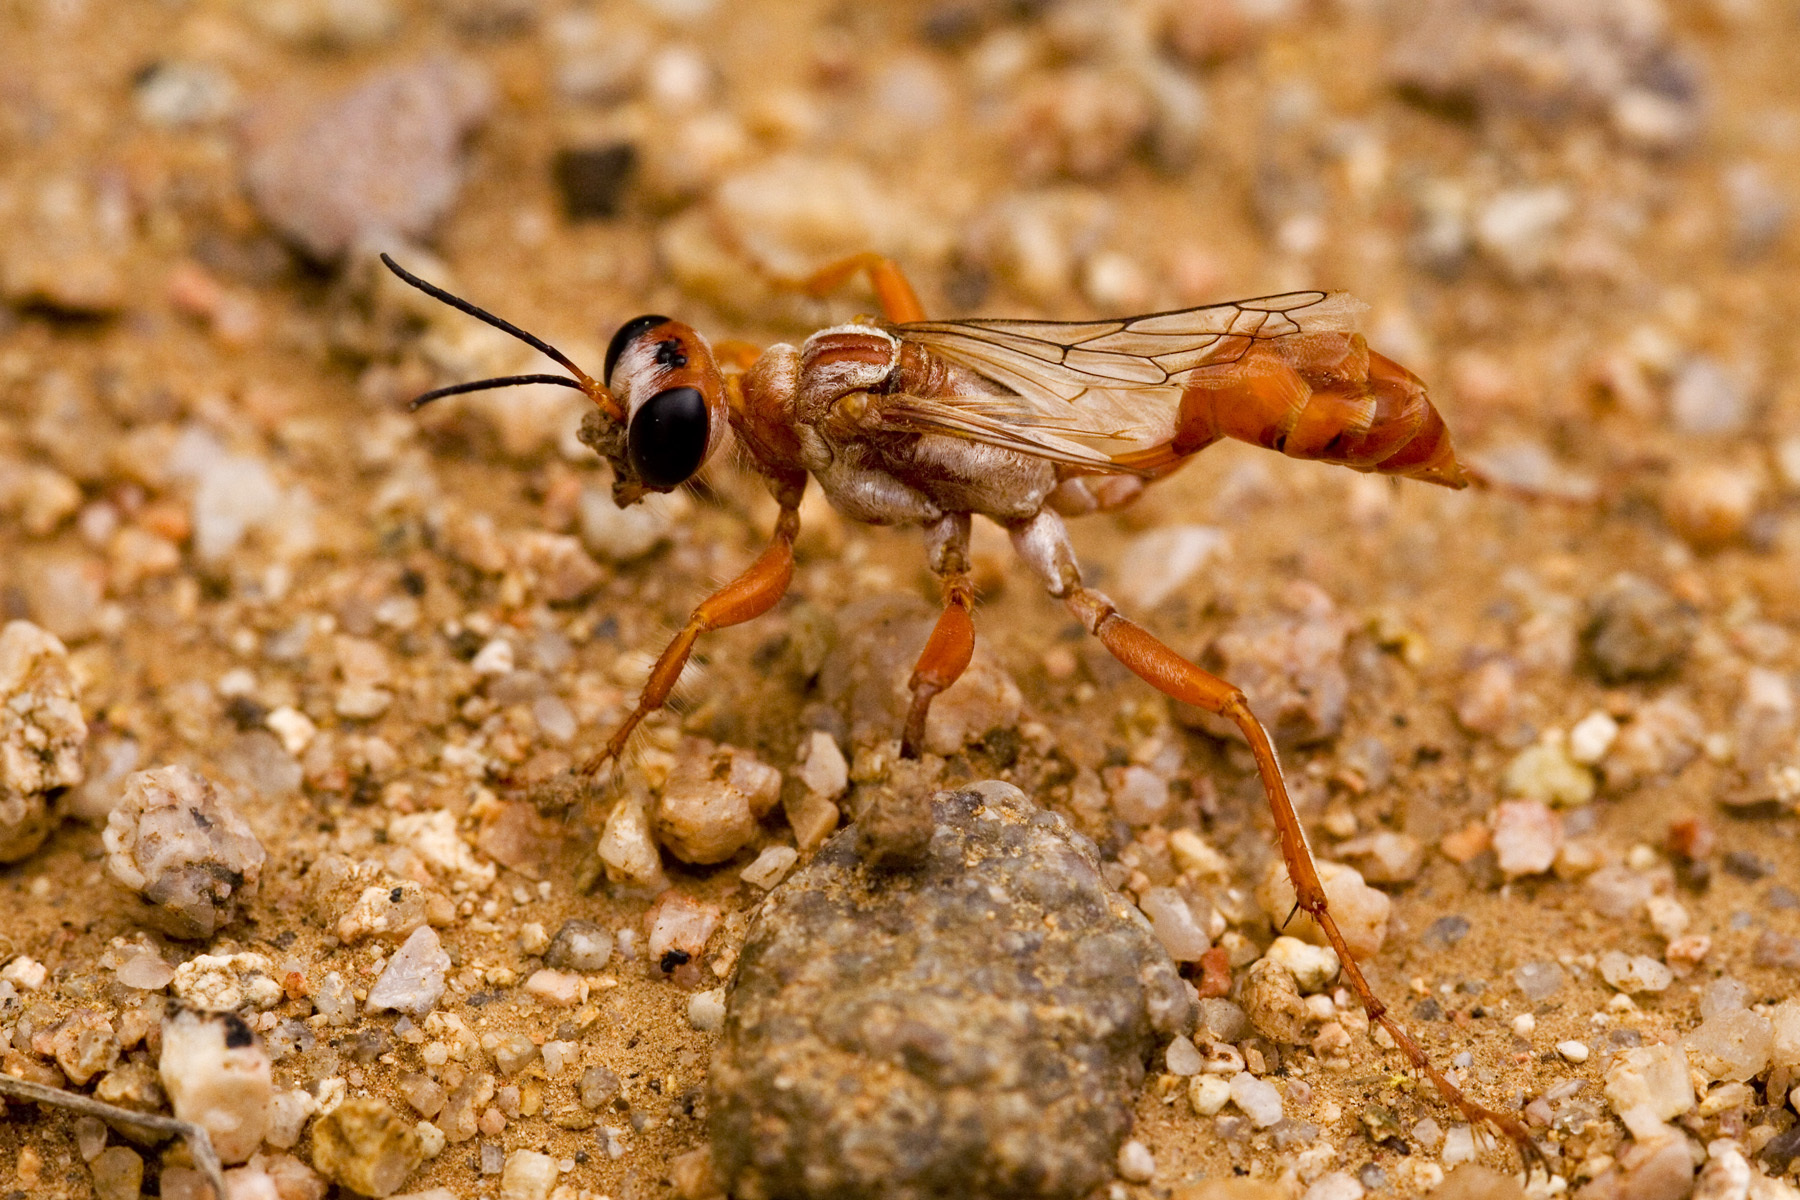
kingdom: Animalia
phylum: Arthropoda
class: Insecta
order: Hymenoptera
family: Sphecidae
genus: Prionyx
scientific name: Prionyx foxi
